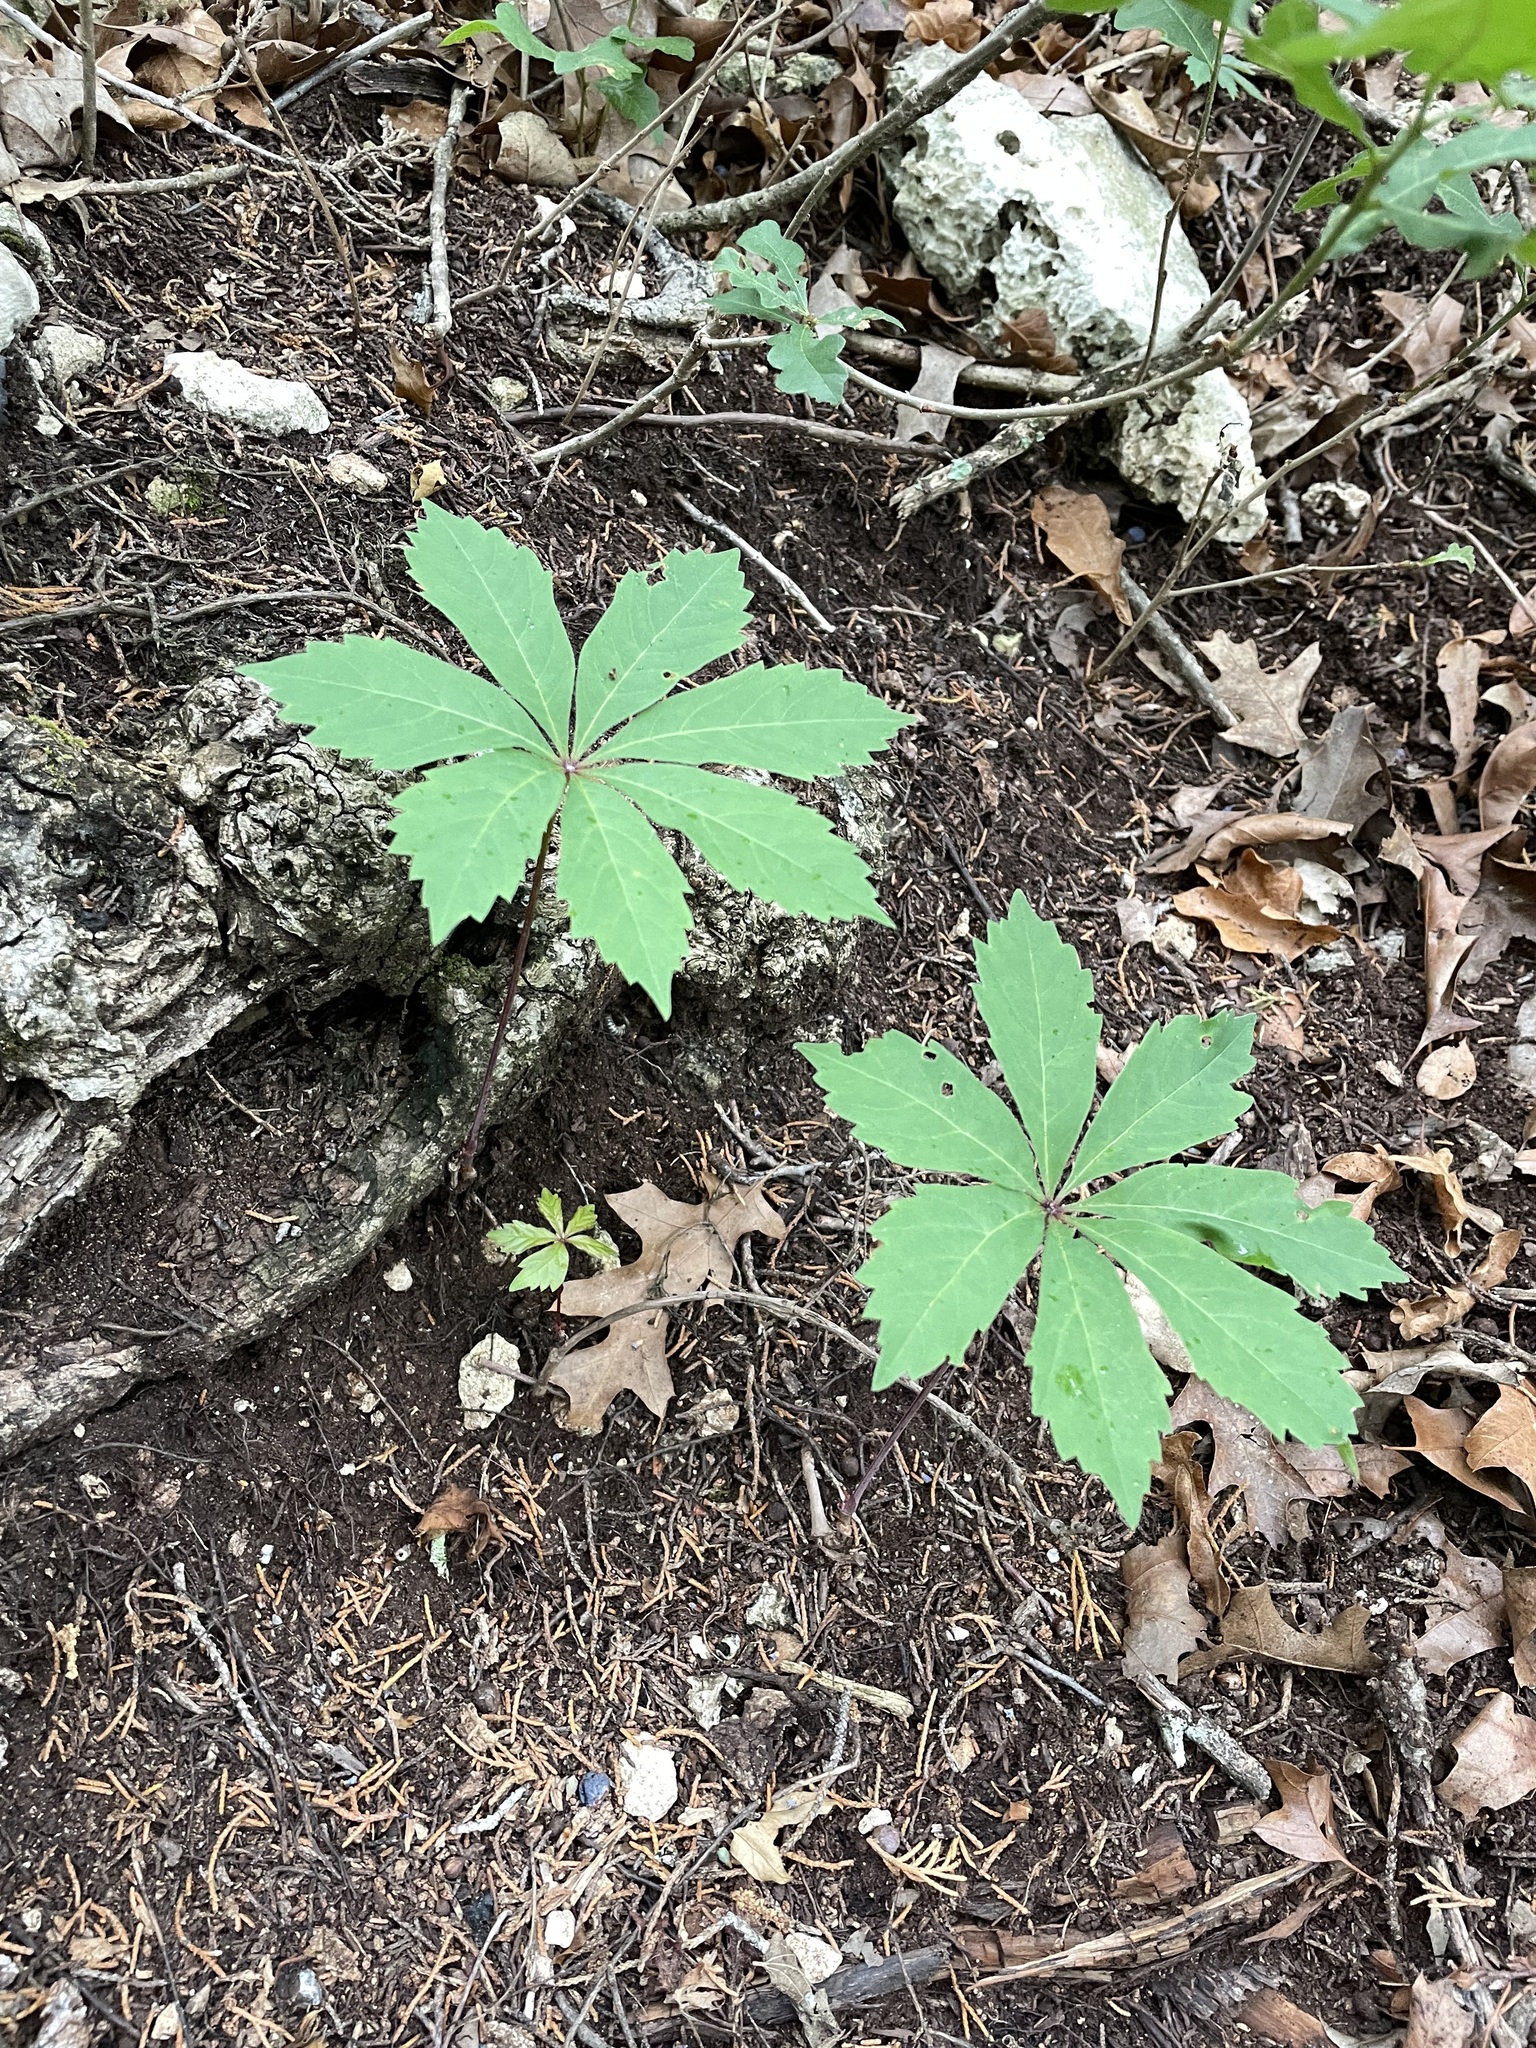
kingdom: Plantae
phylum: Tracheophyta
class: Magnoliopsida
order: Vitales
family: Vitaceae
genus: Parthenocissus
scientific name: Parthenocissus heptaphylla
